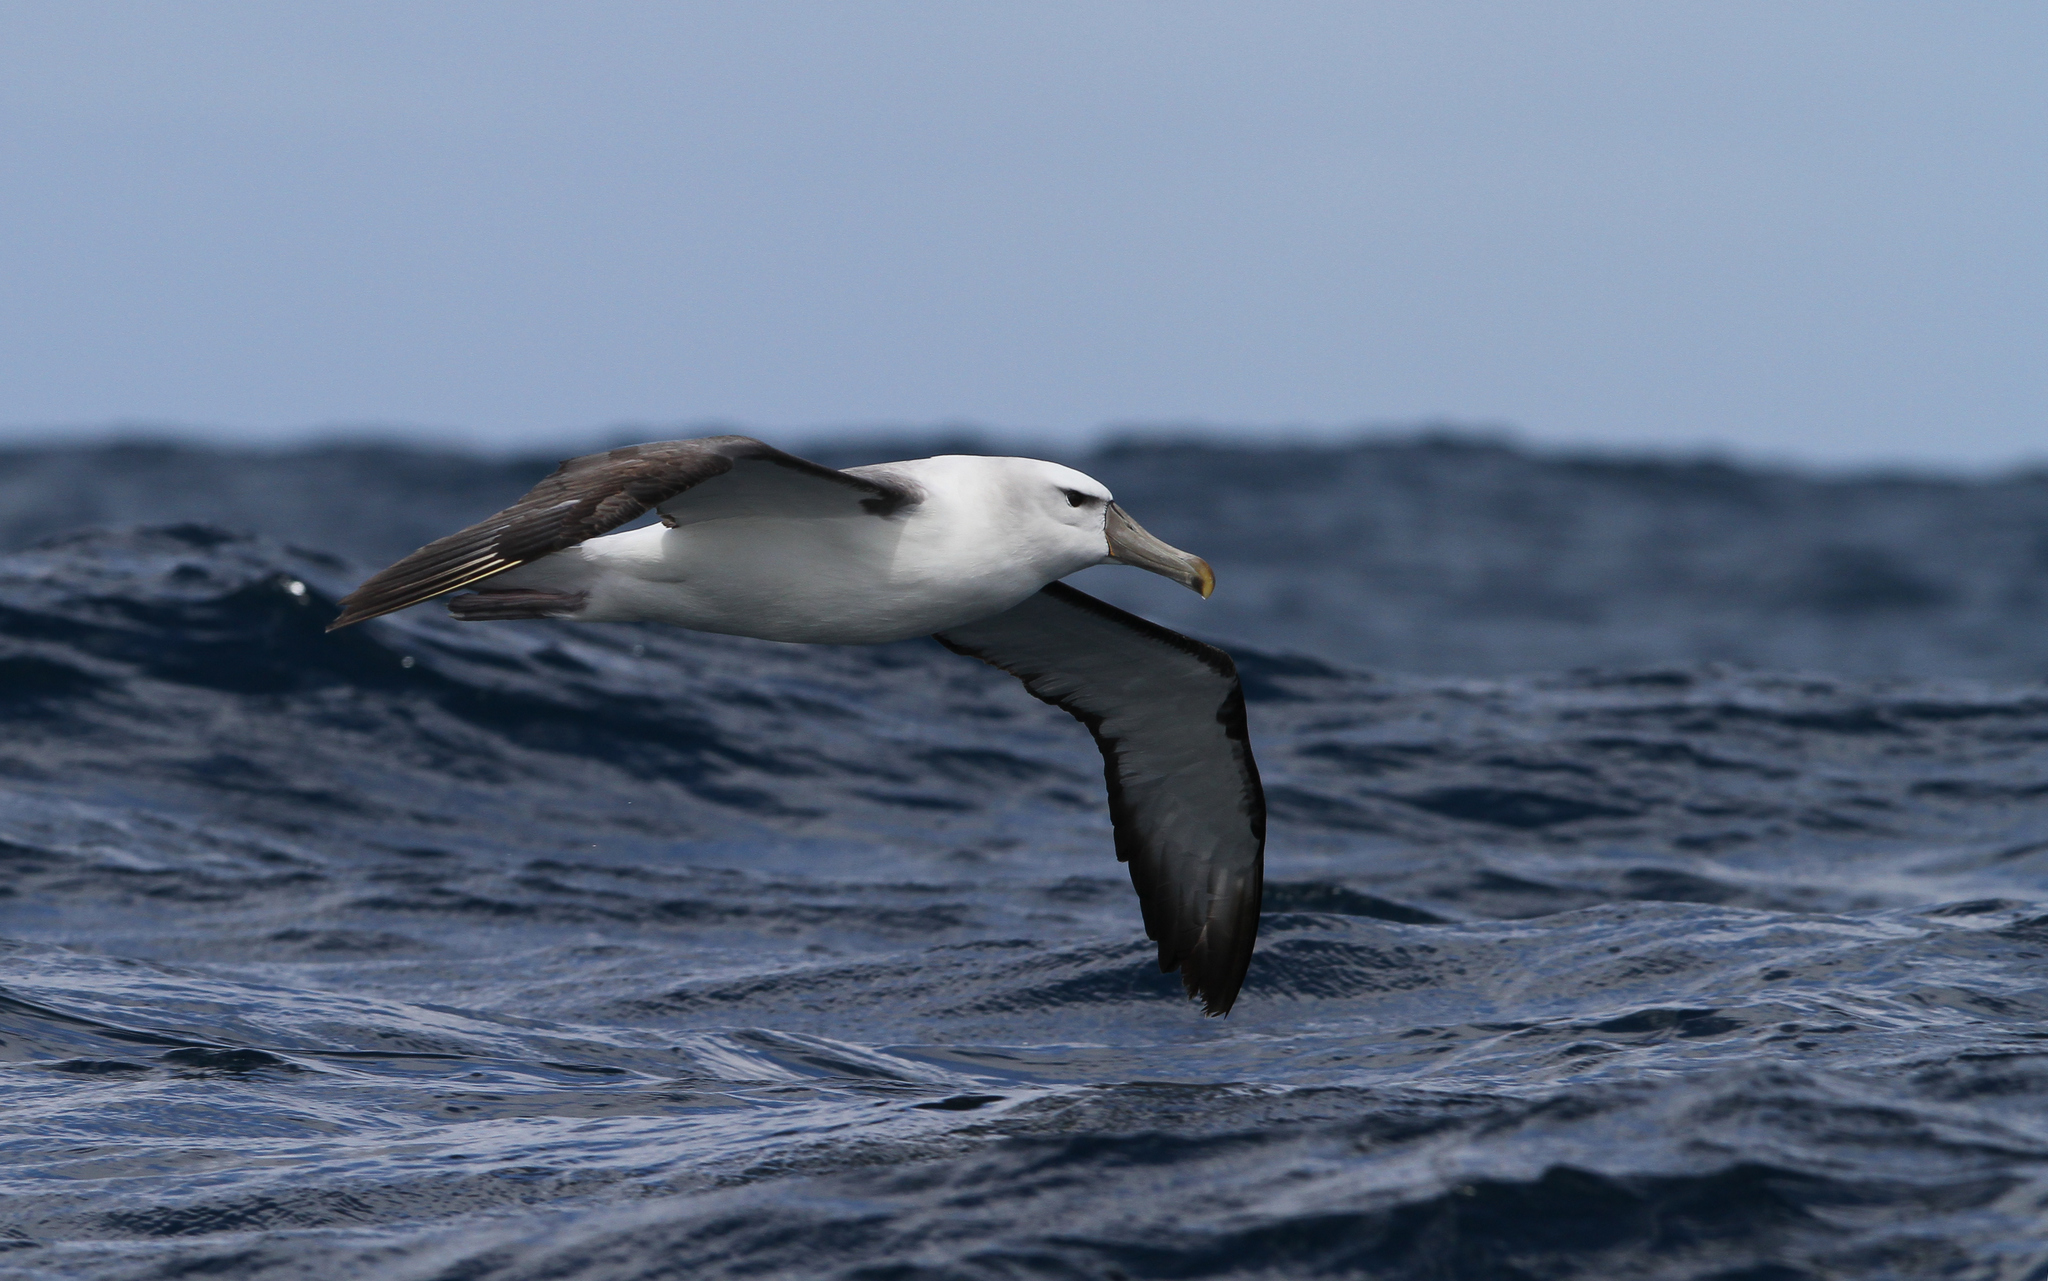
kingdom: Animalia
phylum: Chordata
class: Aves
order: Procellariiformes
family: Diomedeidae
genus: Thalassarche
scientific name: Thalassarche cauta
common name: Shy albatross
